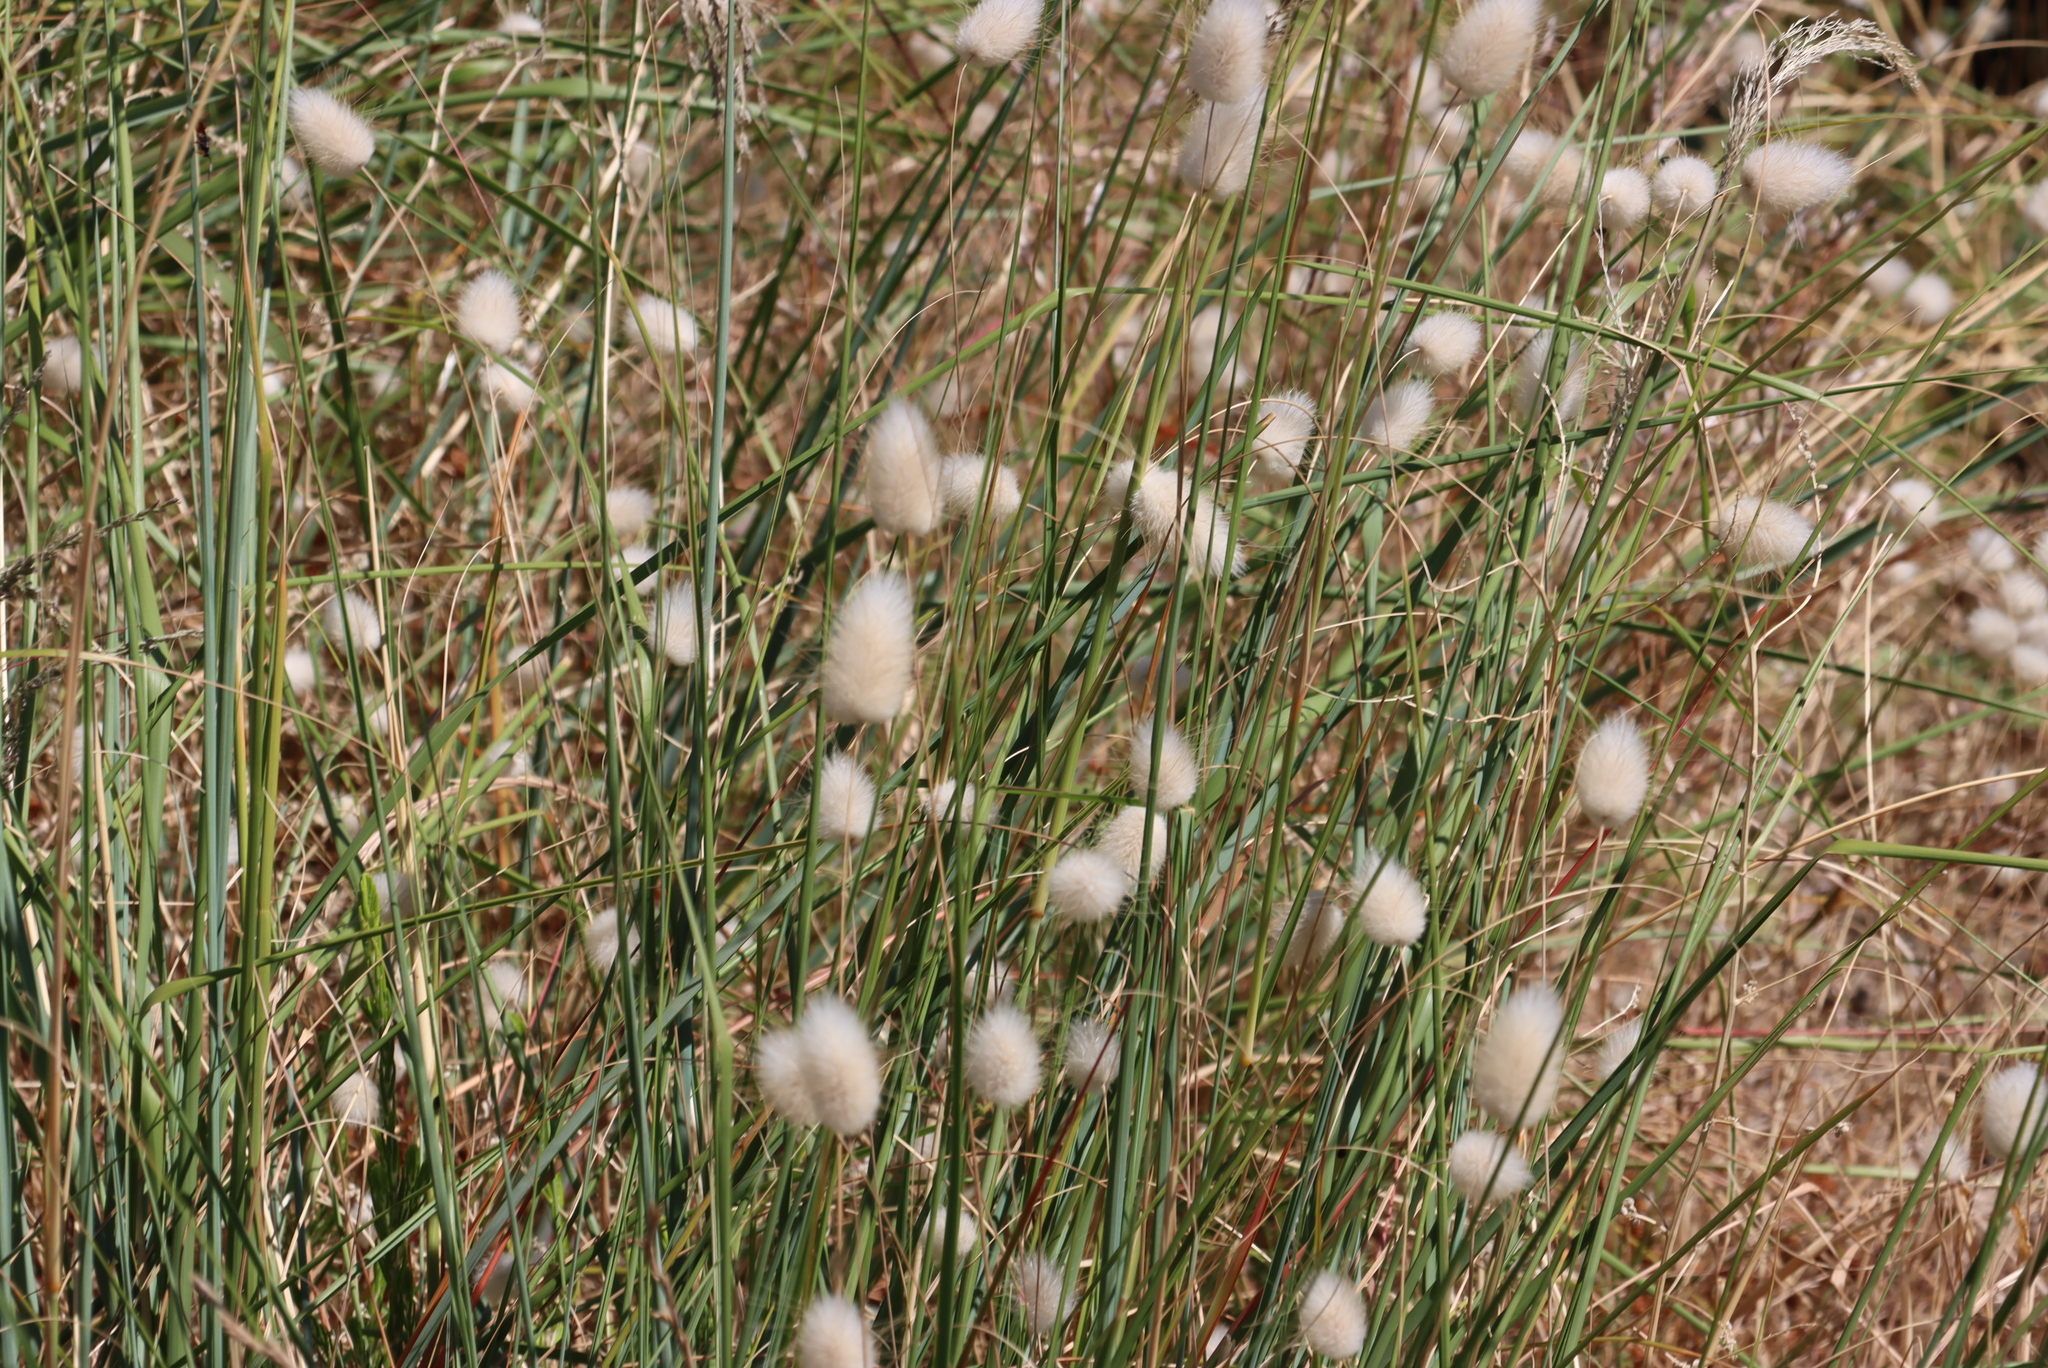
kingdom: Plantae
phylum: Tracheophyta
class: Liliopsida
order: Poales
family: Poaceae
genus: Lagurus
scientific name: Lagurus ovatus
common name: Hare's-tail
